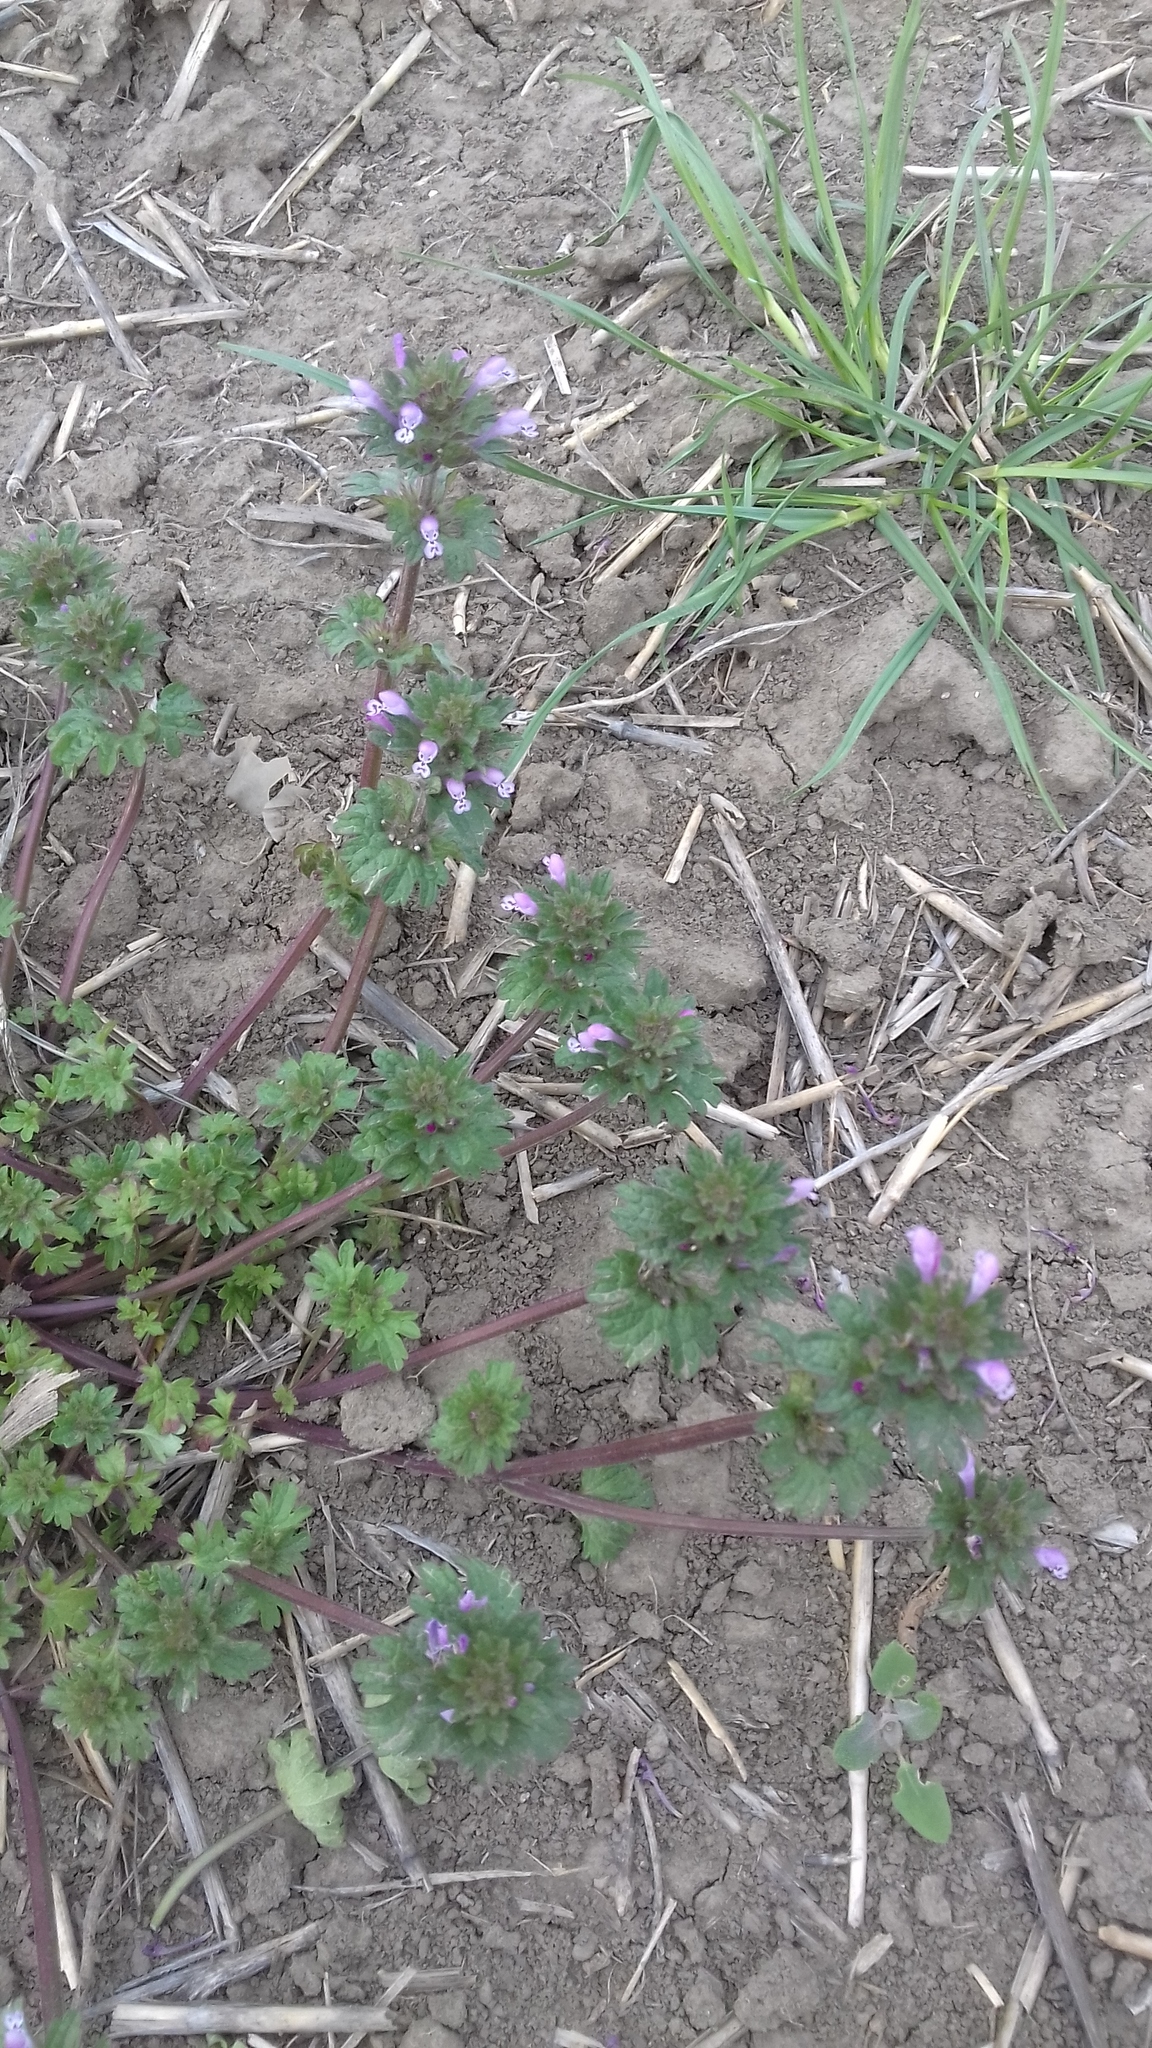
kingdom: Plantae
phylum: Tracheophyta
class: Magnoliopsida
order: Lamiales
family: Lamiaceae
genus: Lamium
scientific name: Lamium amplexicaule
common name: Henbit dead-nettle
